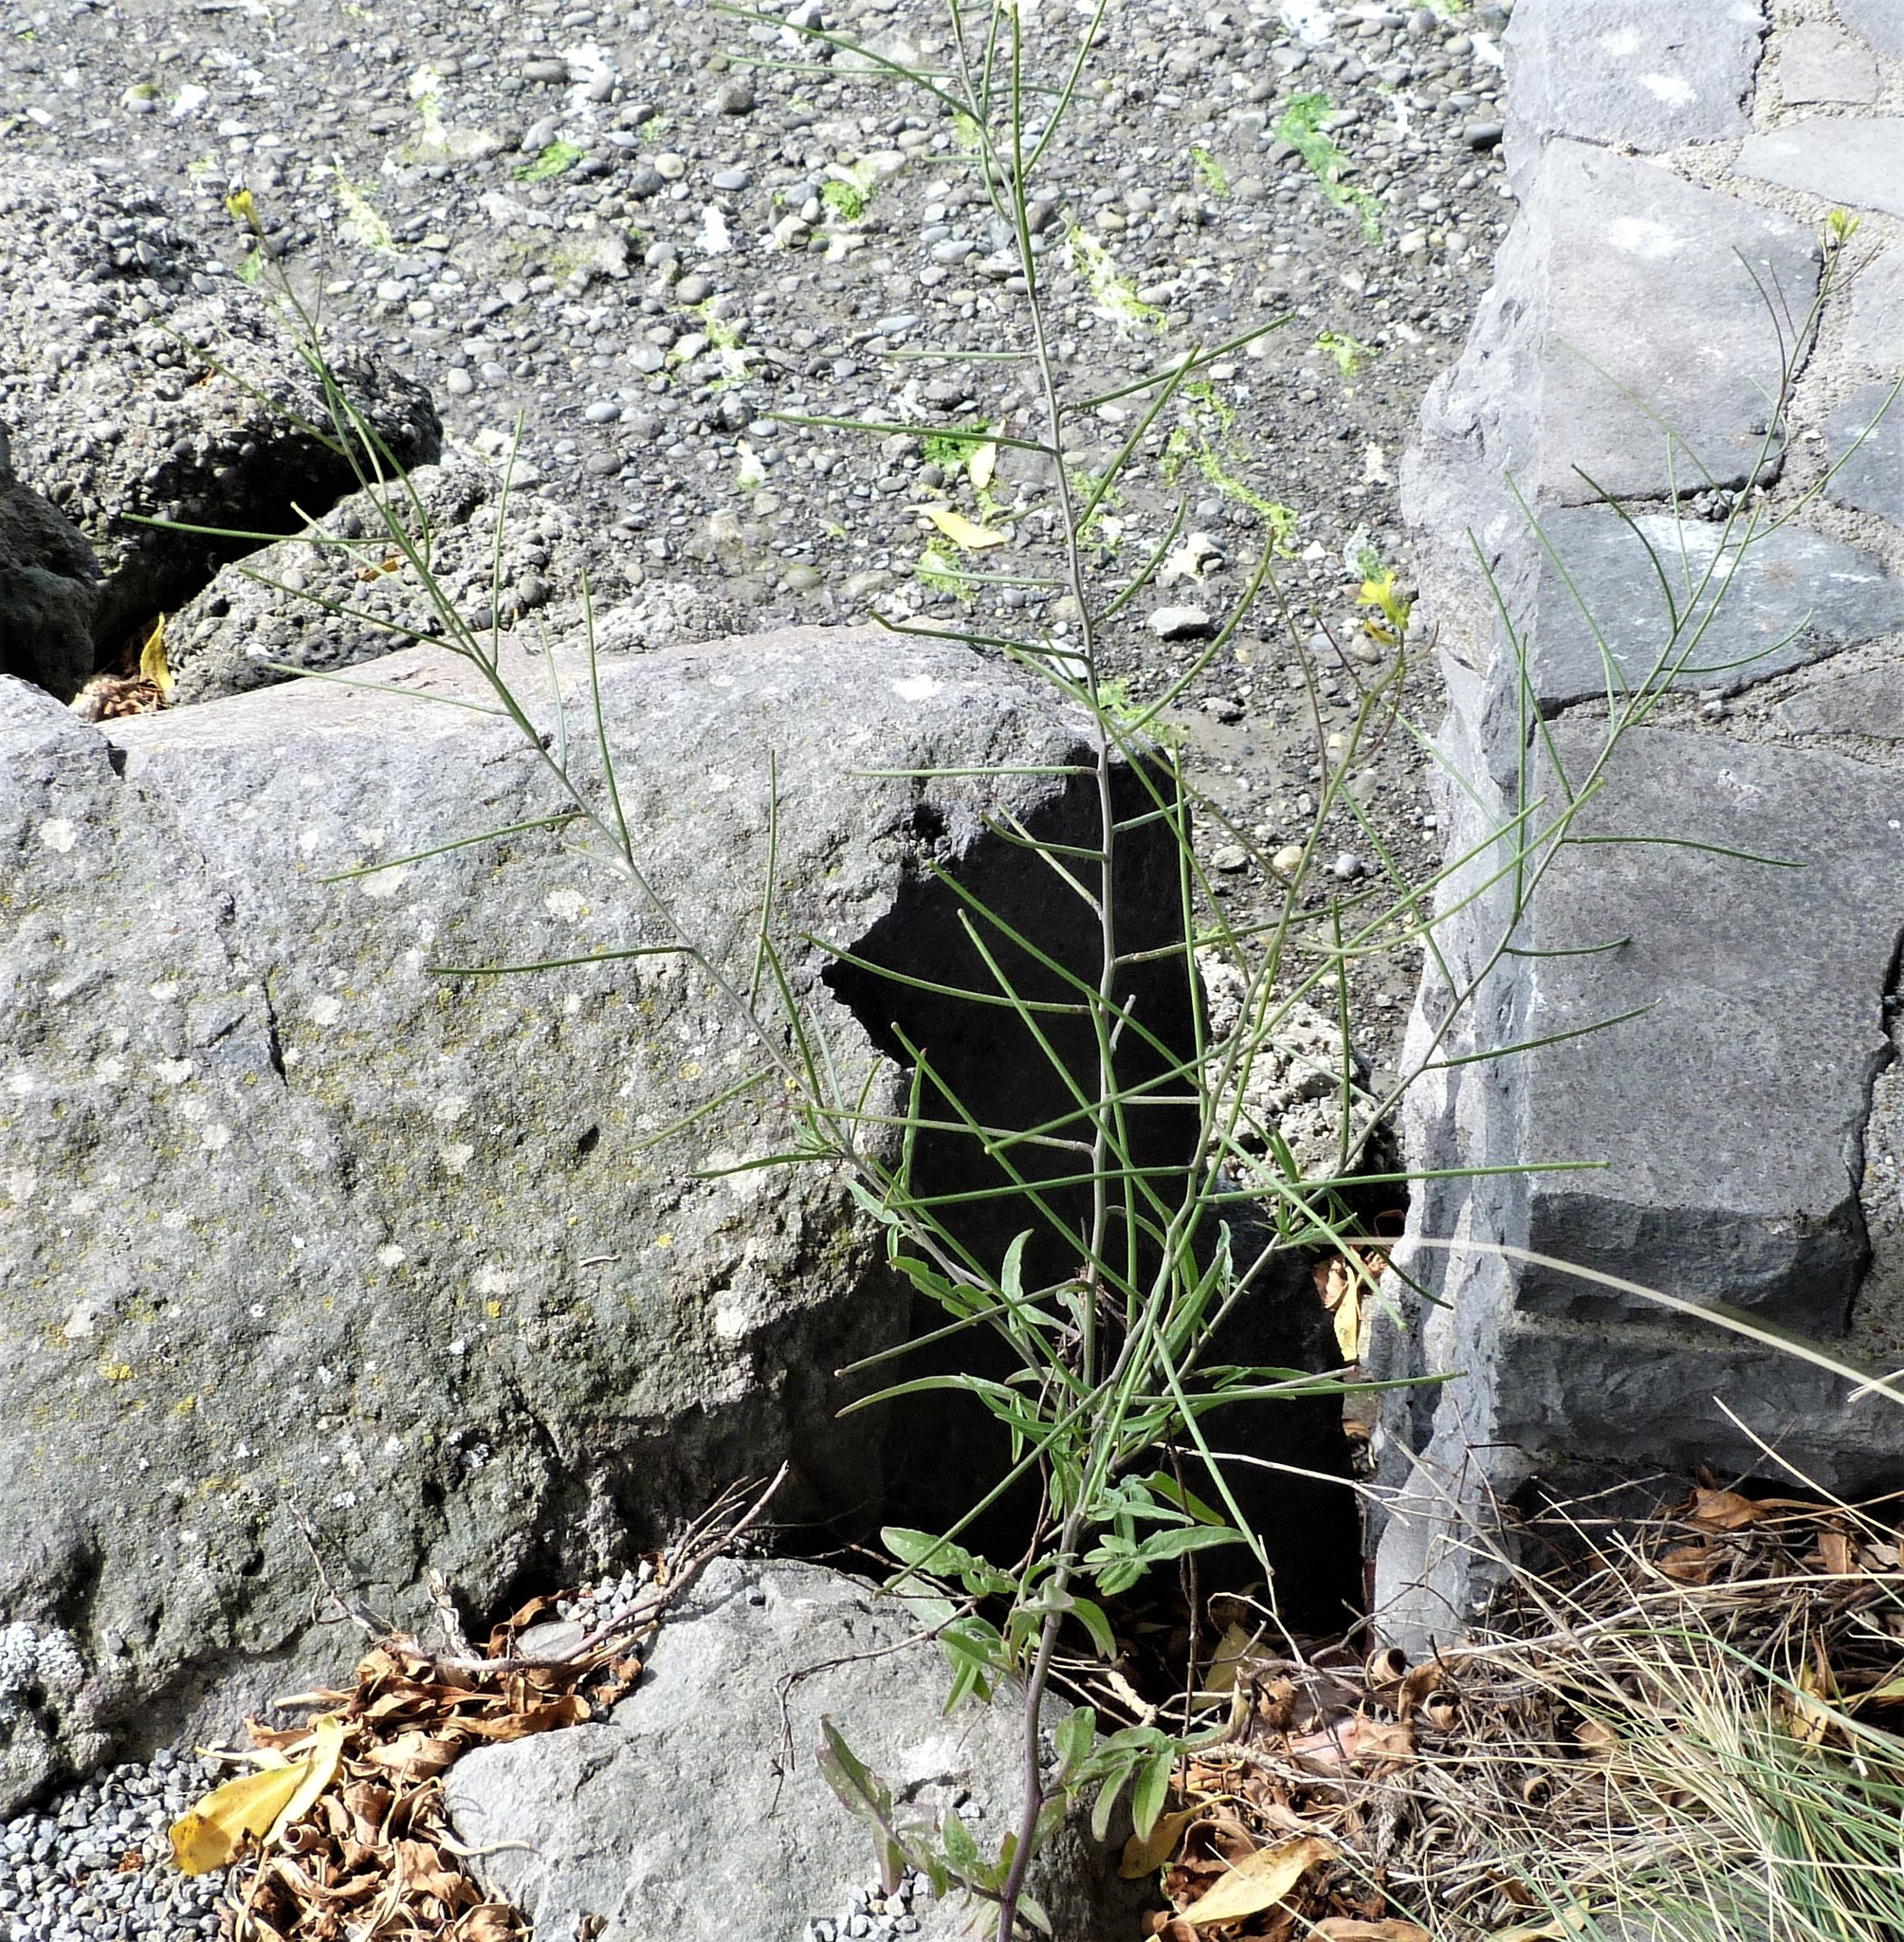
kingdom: Plantae
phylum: Tracheophyta
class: Magnoliopsida
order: Brassicales
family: Brassicaceae
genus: Sisymbrium
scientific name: Sisymbrium orientale
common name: Eastern rocket
